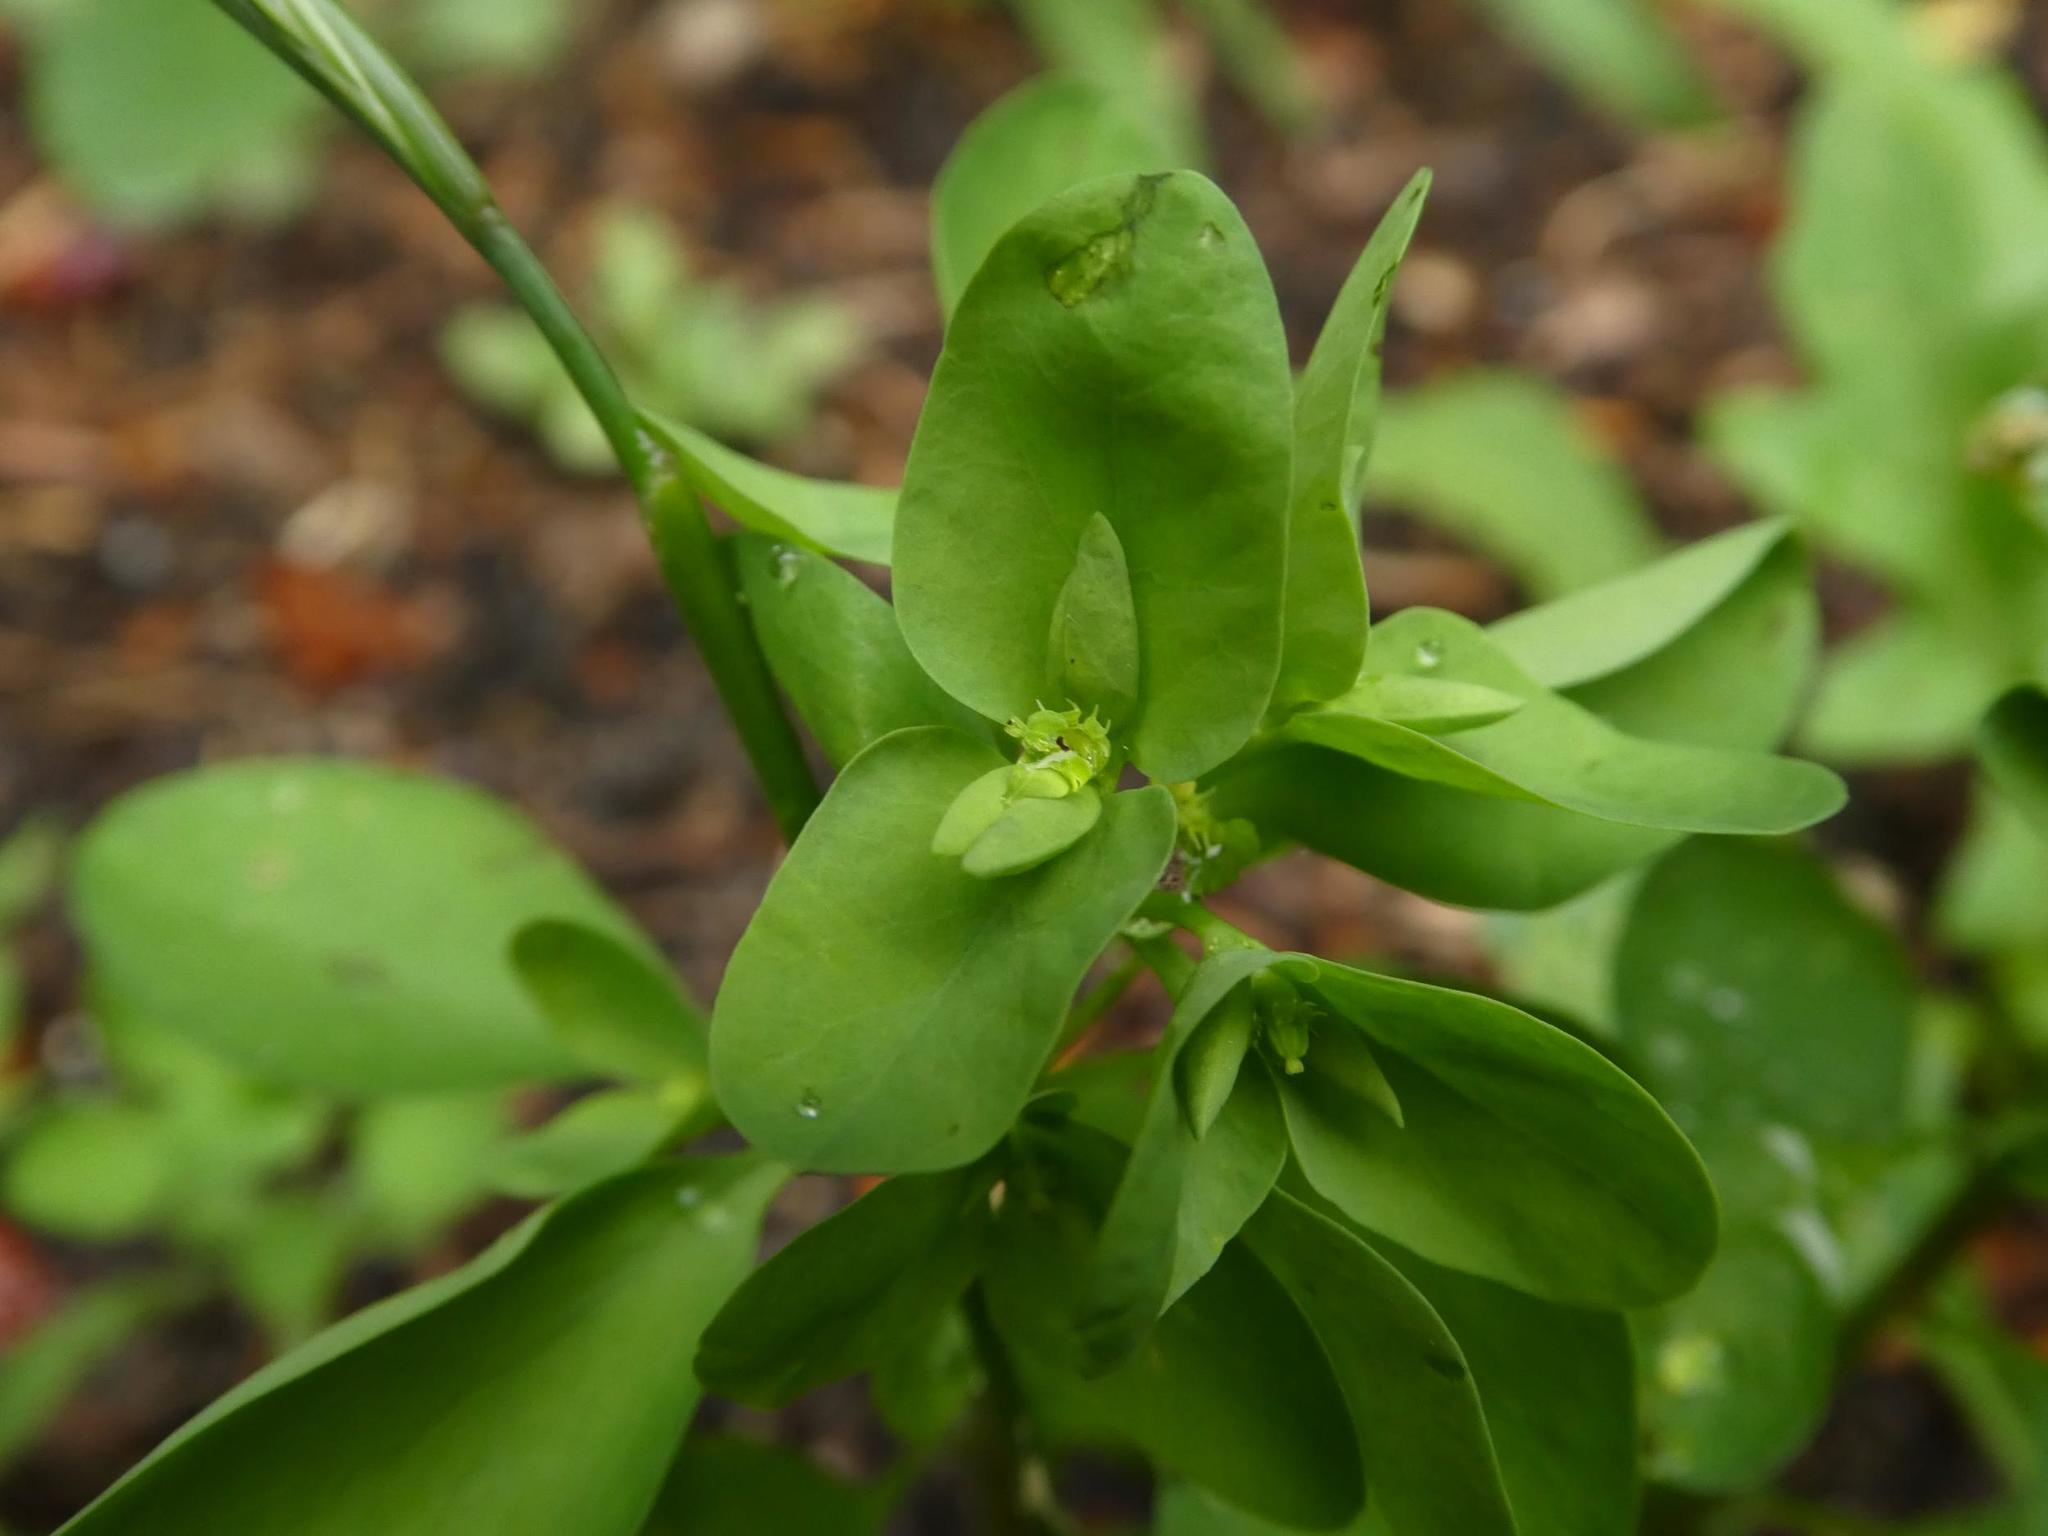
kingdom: Plantae
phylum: Tracheophyta
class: Magnoliopsida
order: Malpighiales
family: Euphorbiaceae
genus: Euphorbia
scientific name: Euphorbia peplus
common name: Petty spurge
